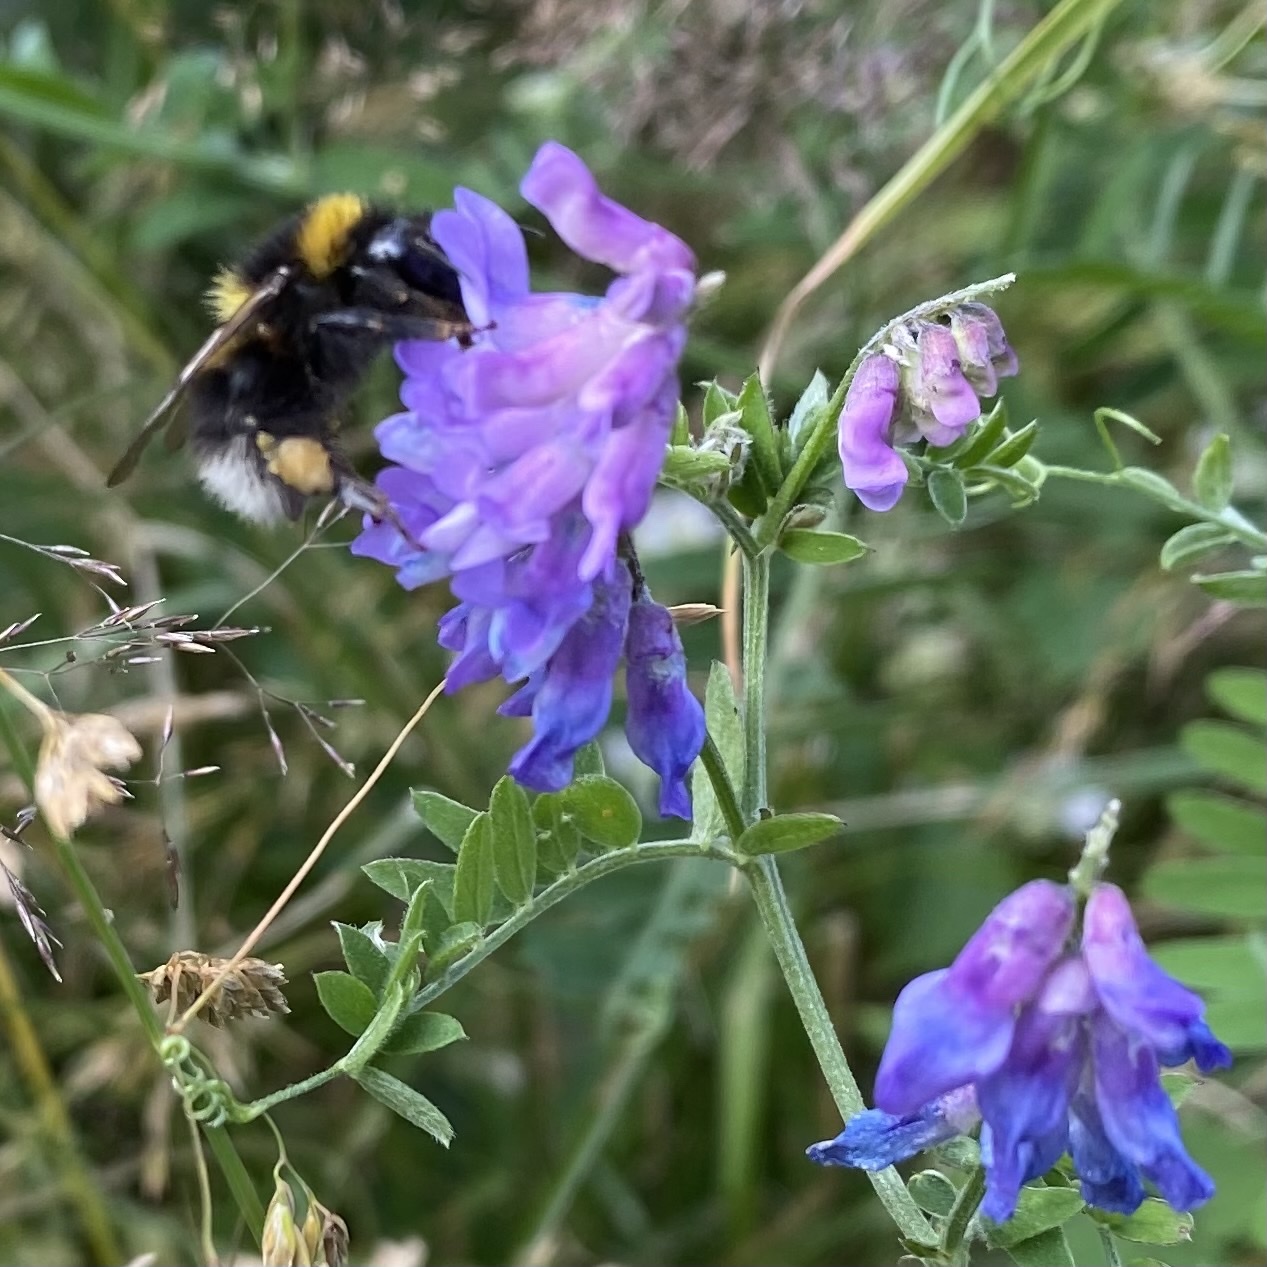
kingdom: Animalia
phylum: Arthropoda
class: Insecta
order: Hymenoptera
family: Apidae
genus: Bombus
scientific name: Bombus hortorum
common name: Garden bumblebee
